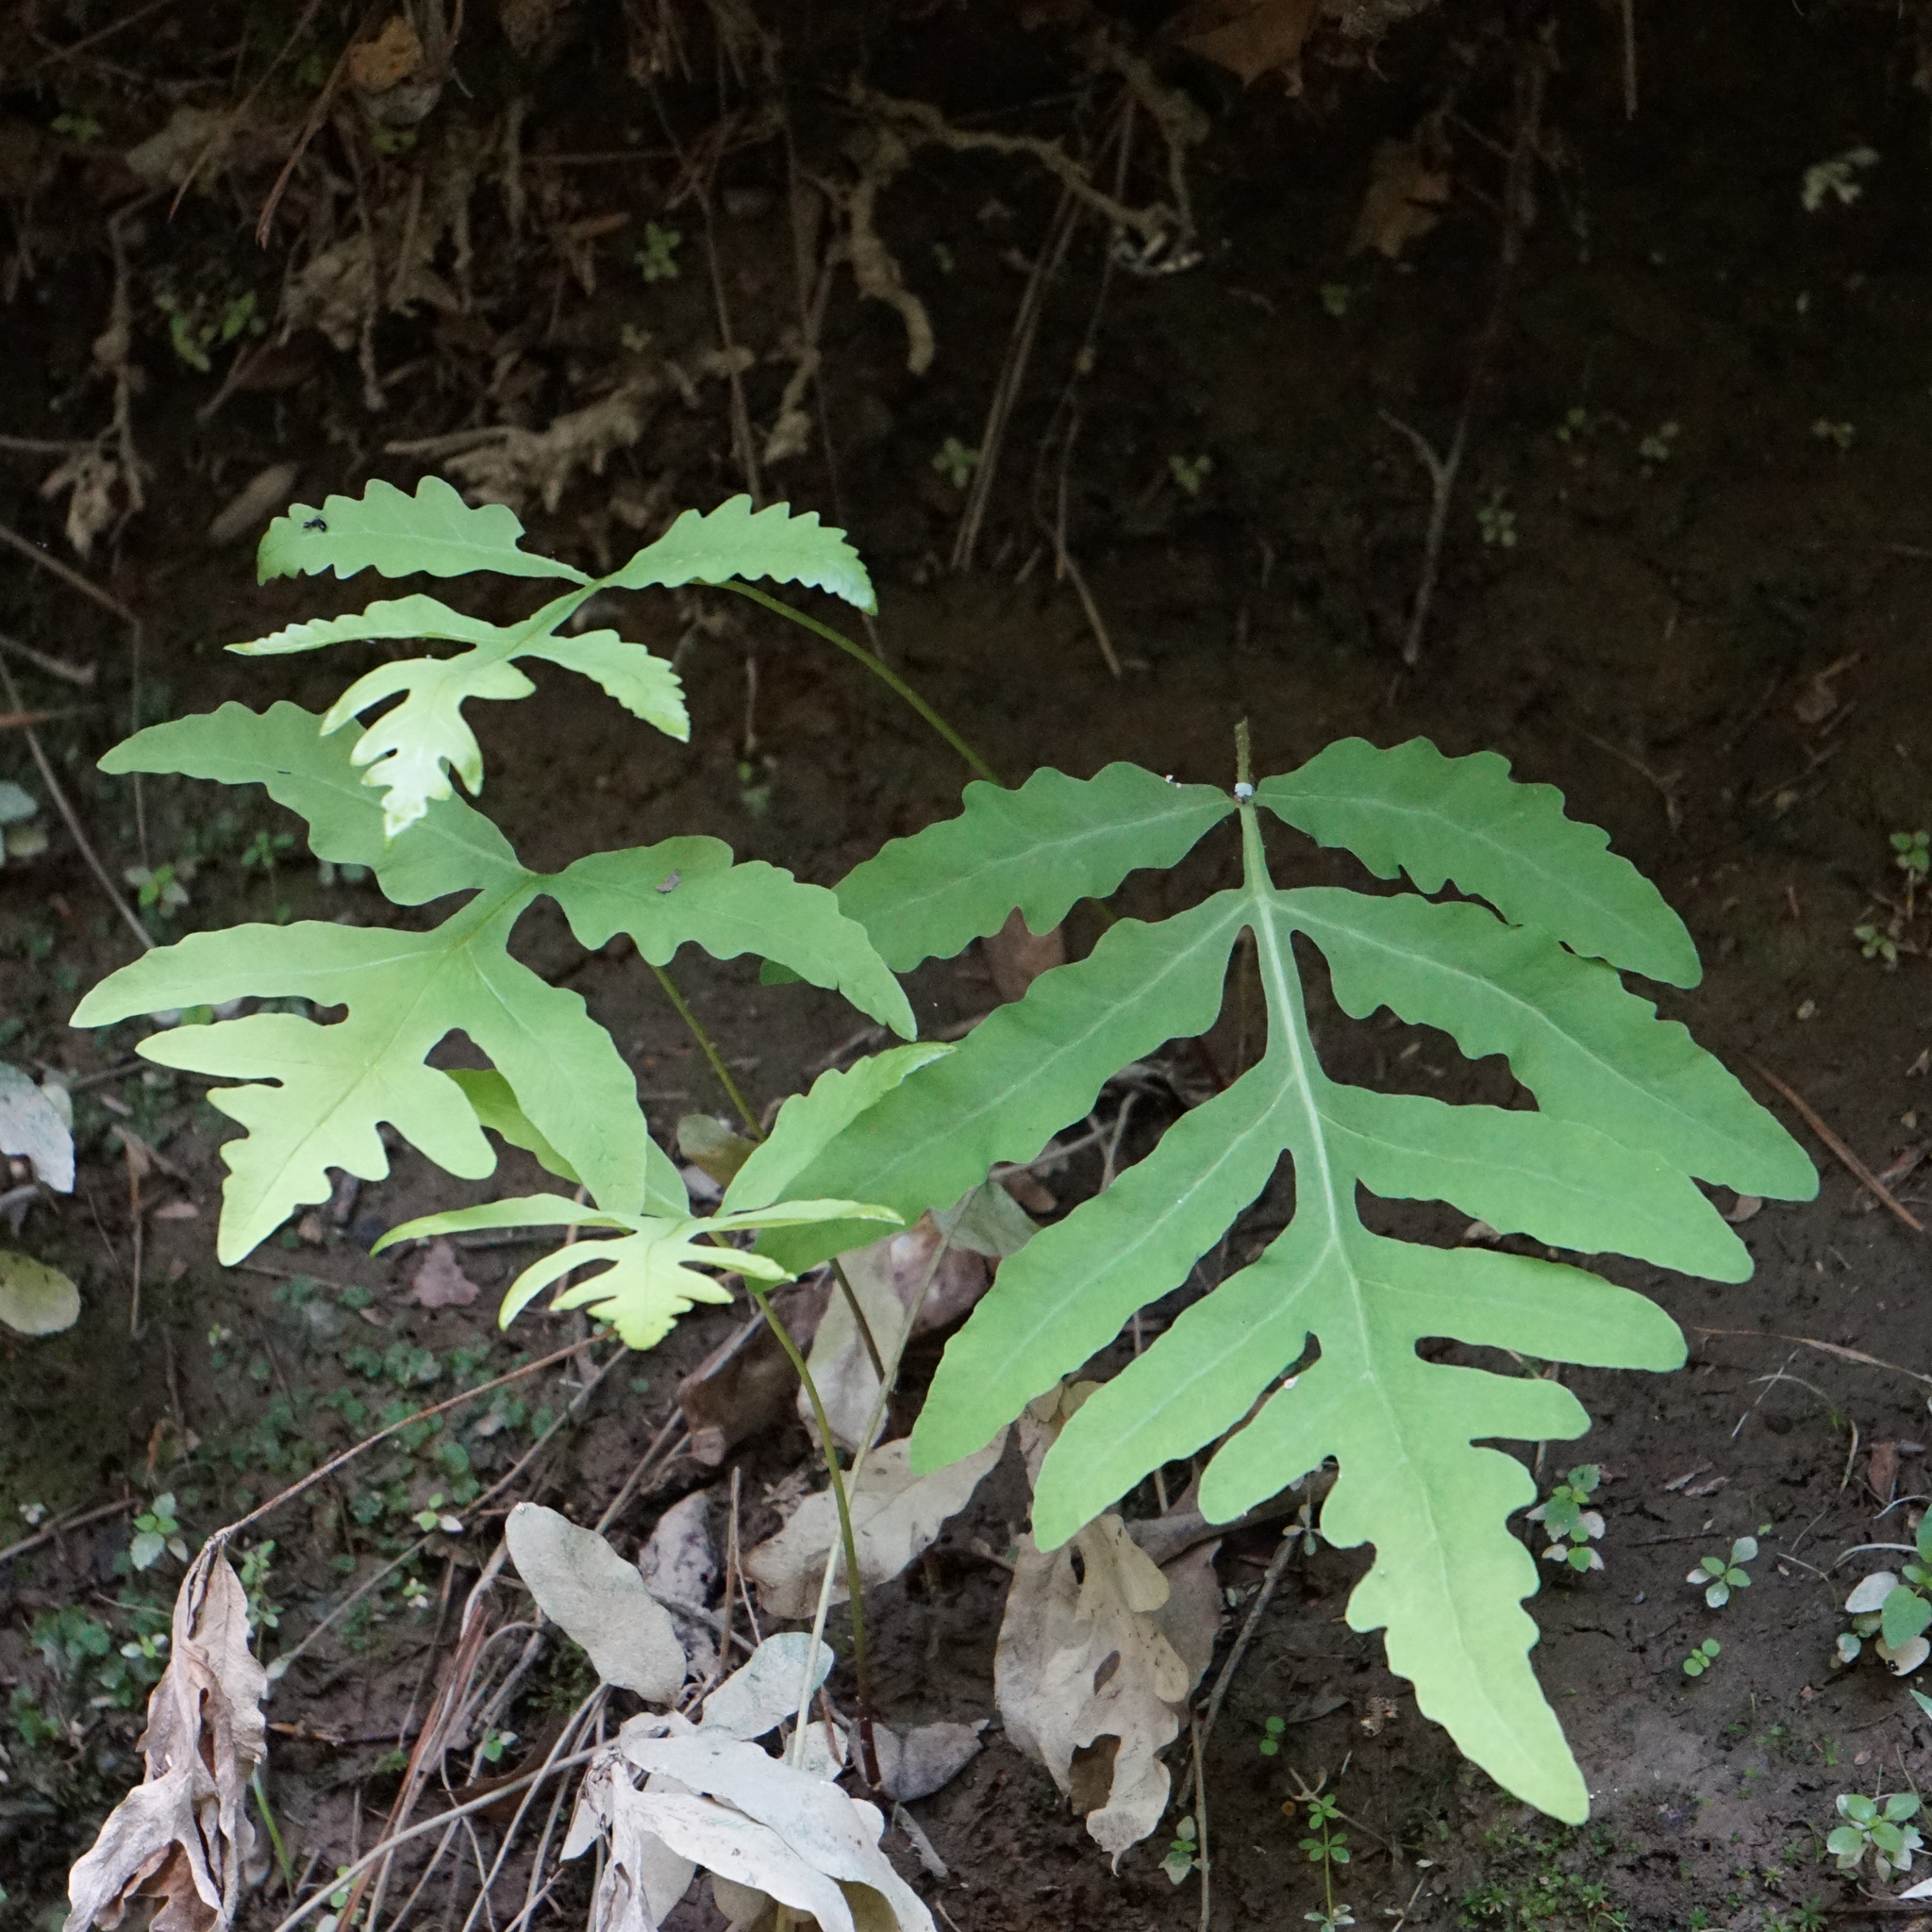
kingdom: Plantae
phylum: Tracheophyta
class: Polypodiopsida
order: Polypodiales
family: Onocleaceae
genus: Onoclea
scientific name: Onoclea sensibilis
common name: Sensitive fern
